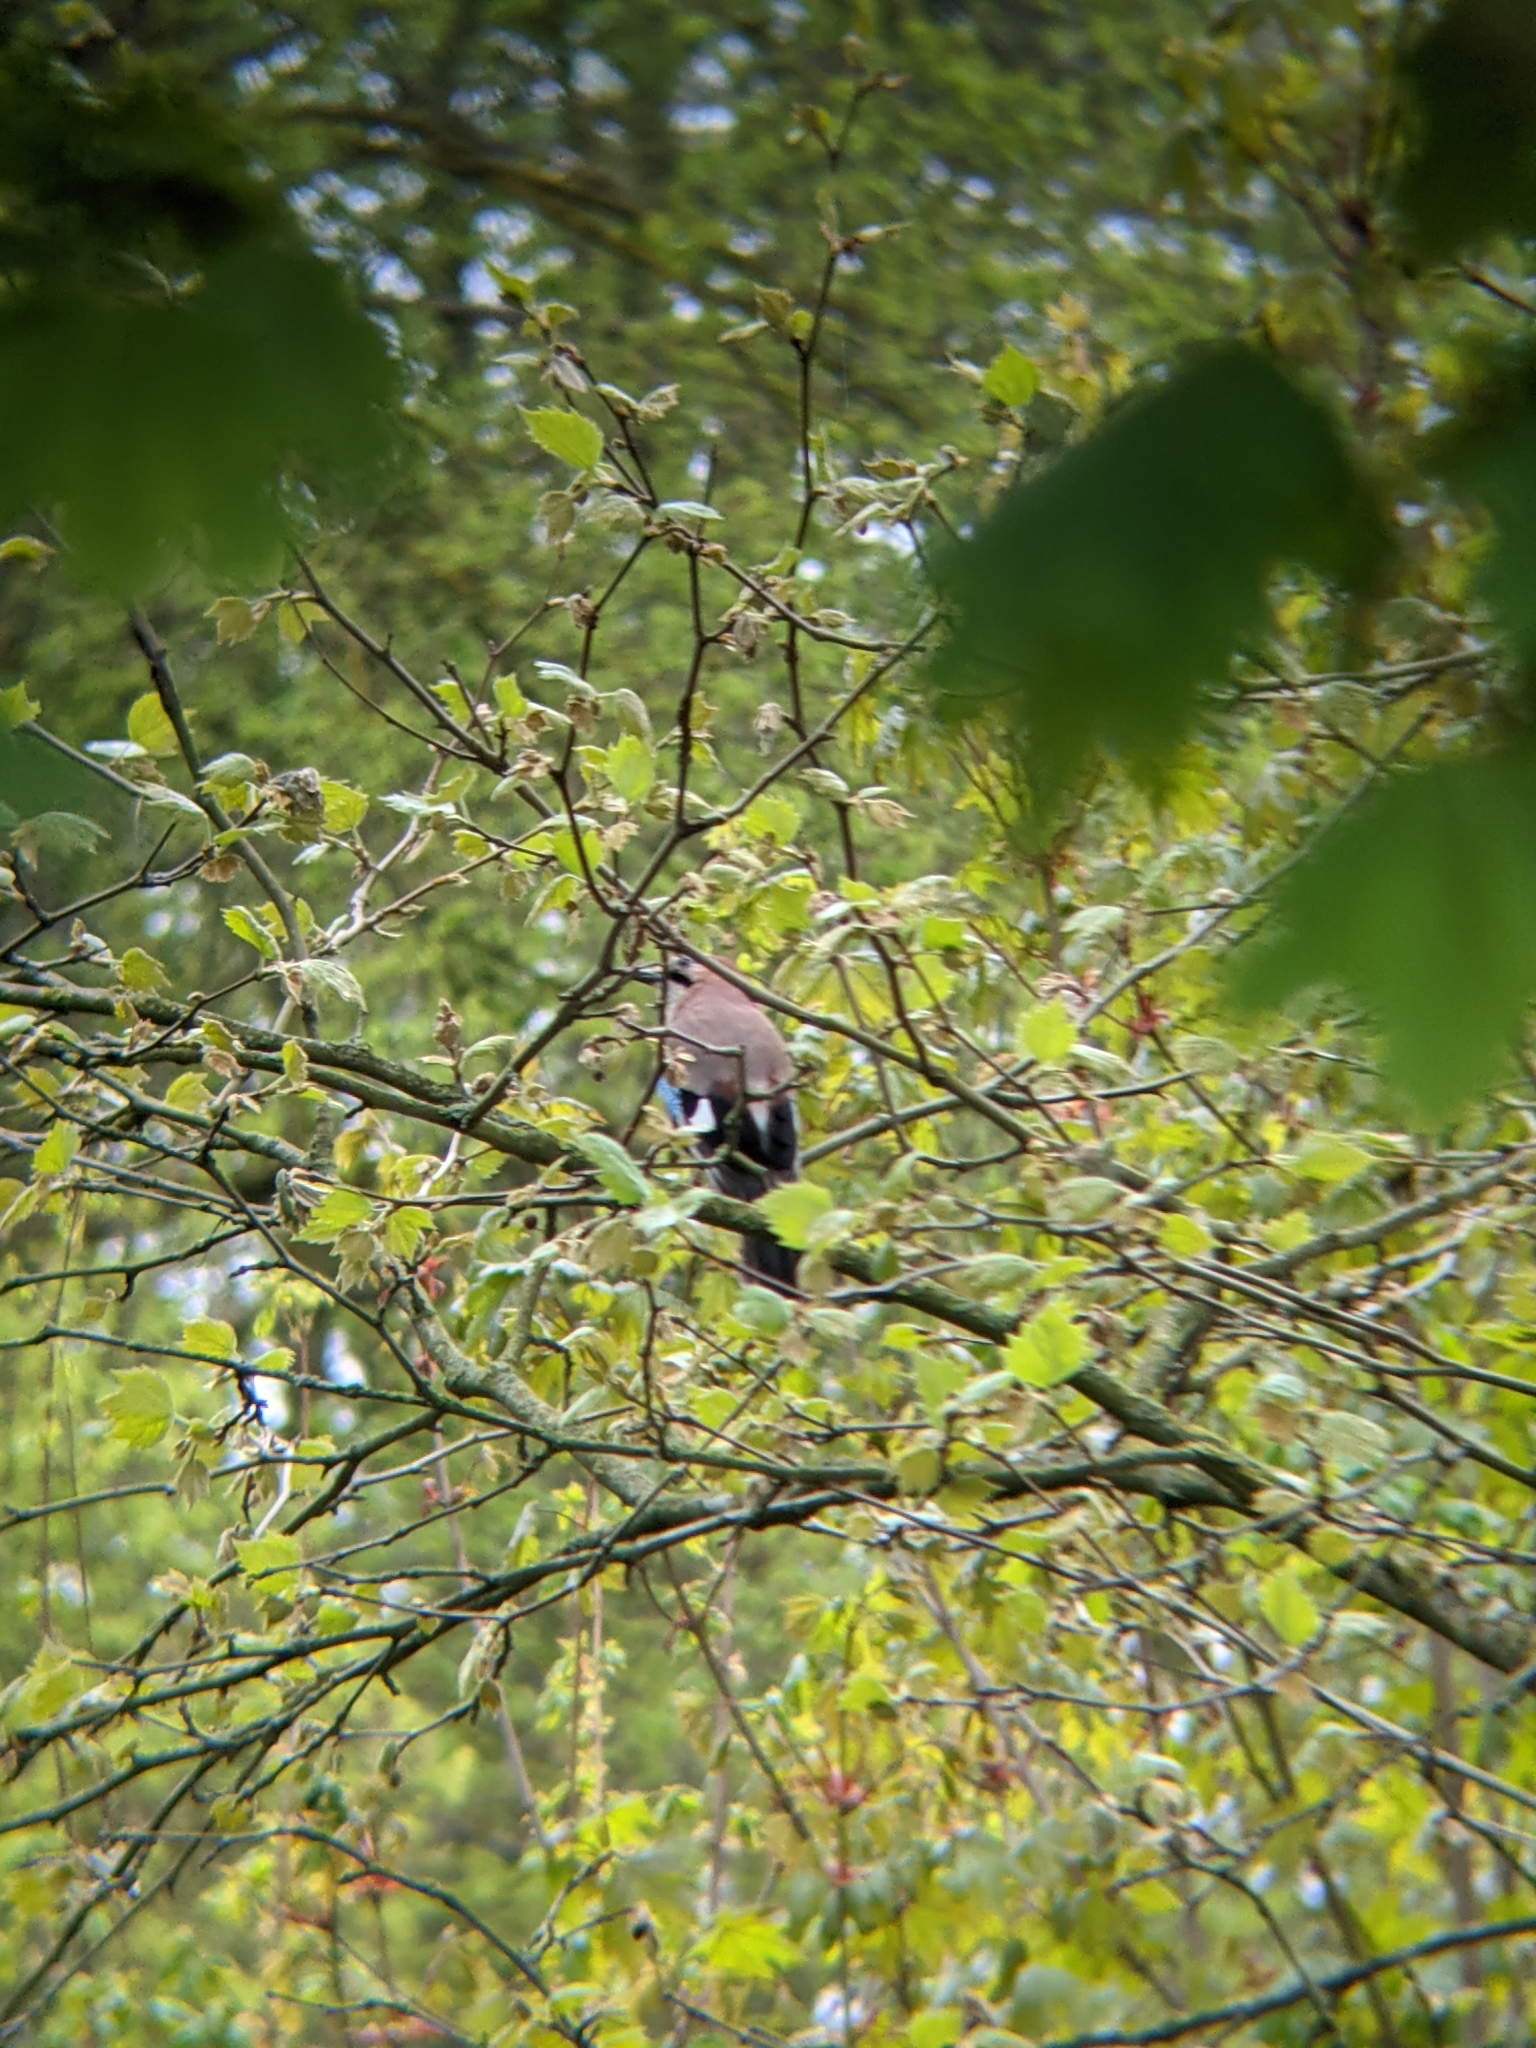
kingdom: Animalia
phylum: Chordata
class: Aves
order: Passeriformes
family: Corvidae
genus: Garrulus
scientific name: Garrulus glandarius
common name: Eurasian jay
